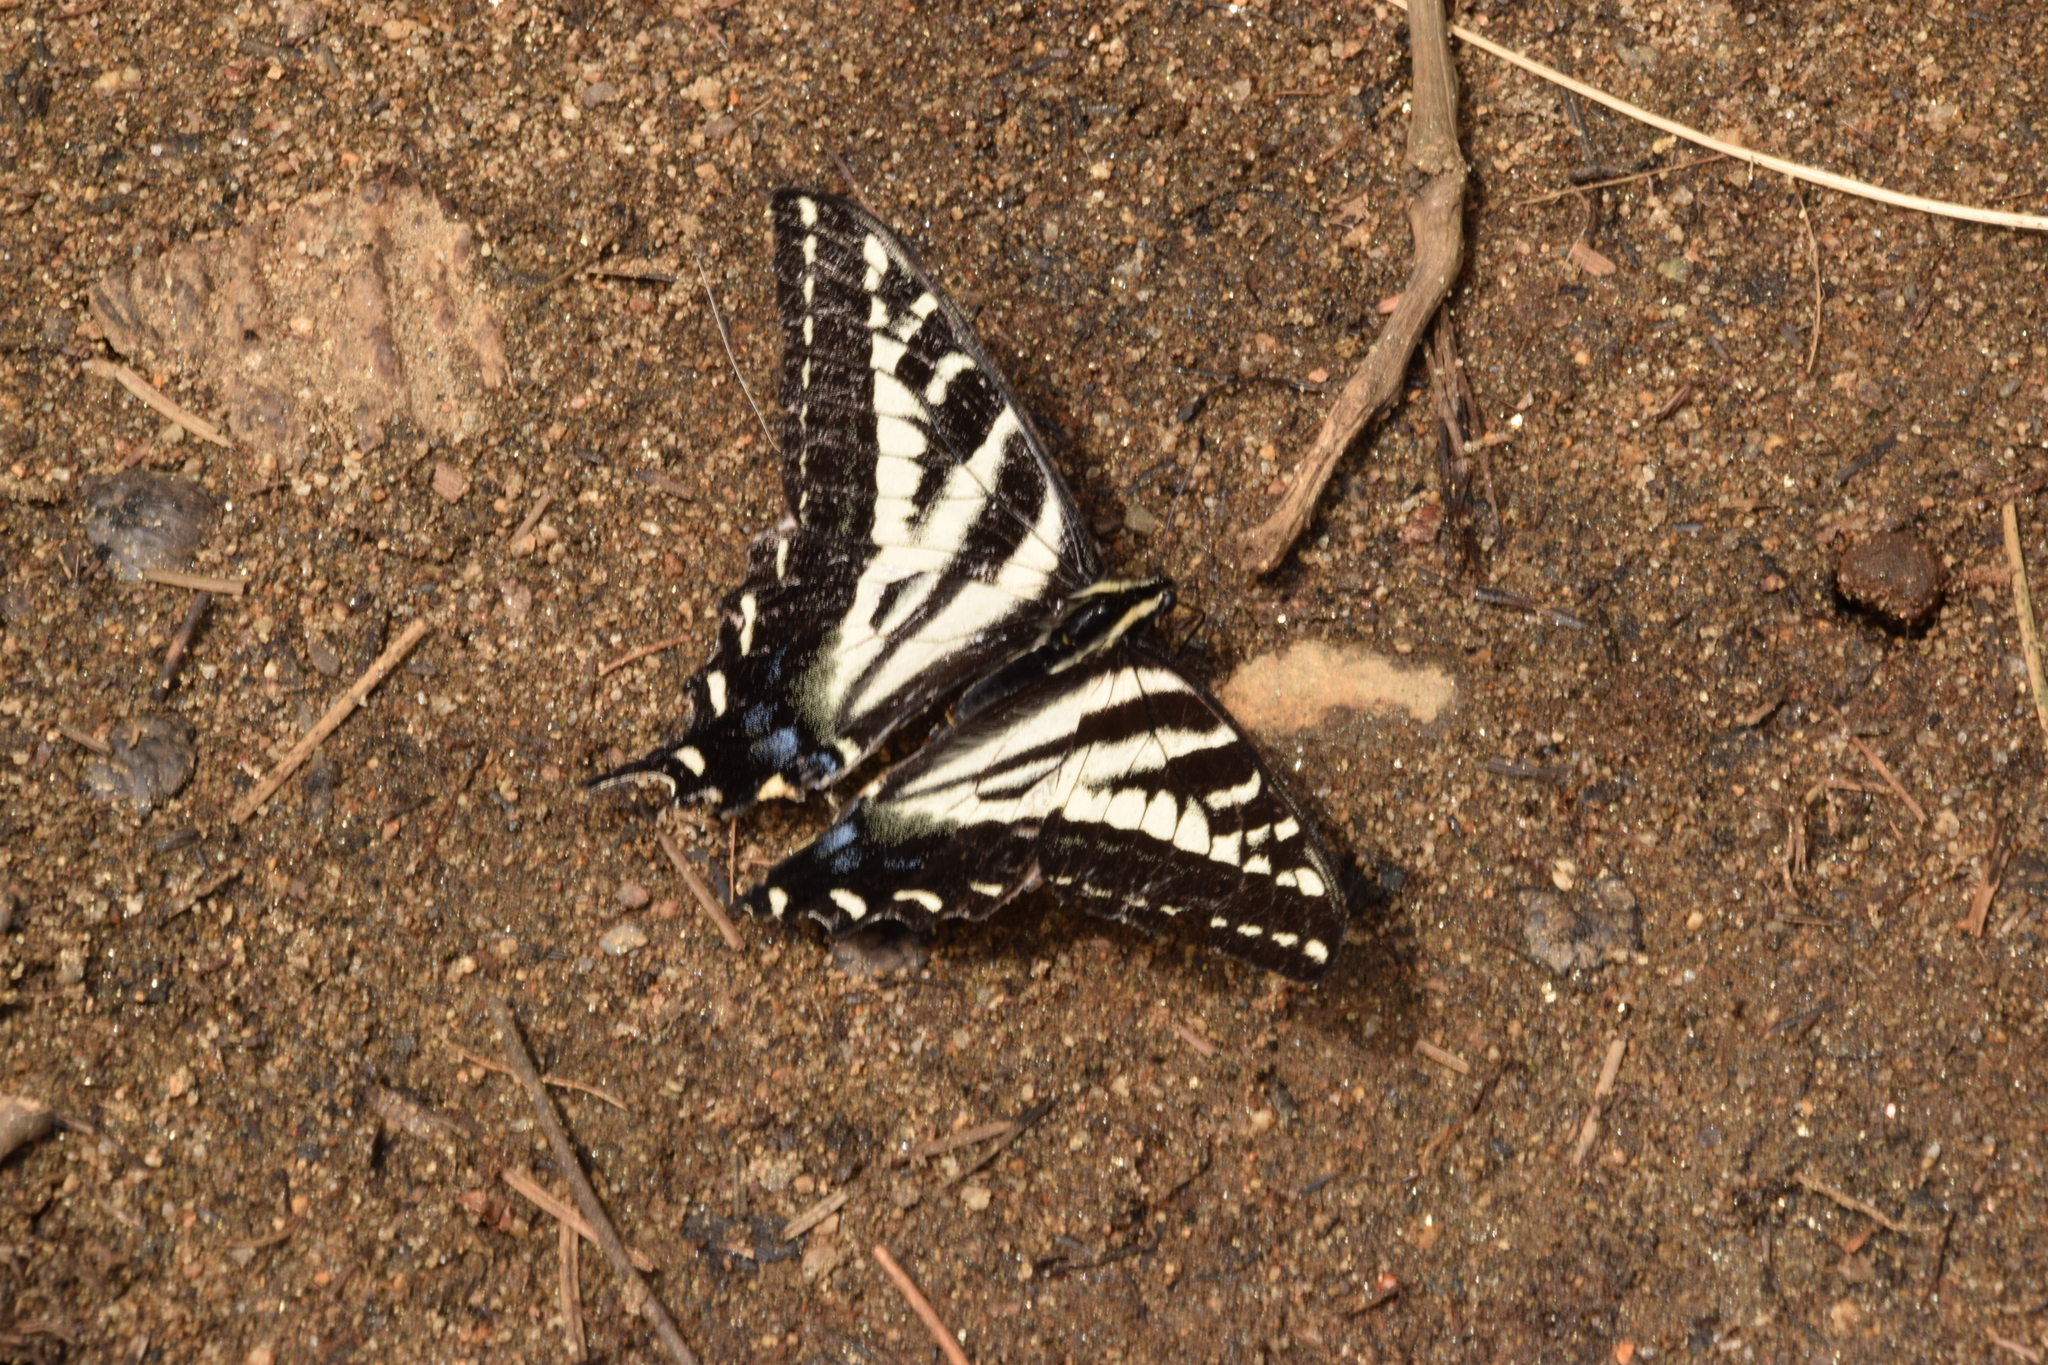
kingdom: Animalia
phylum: Arthropoda
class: Insecta
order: Lepidoptera
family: Papilionidae
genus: Papilio
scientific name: Papilio eurymedon
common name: Pale tiger swallowtail
